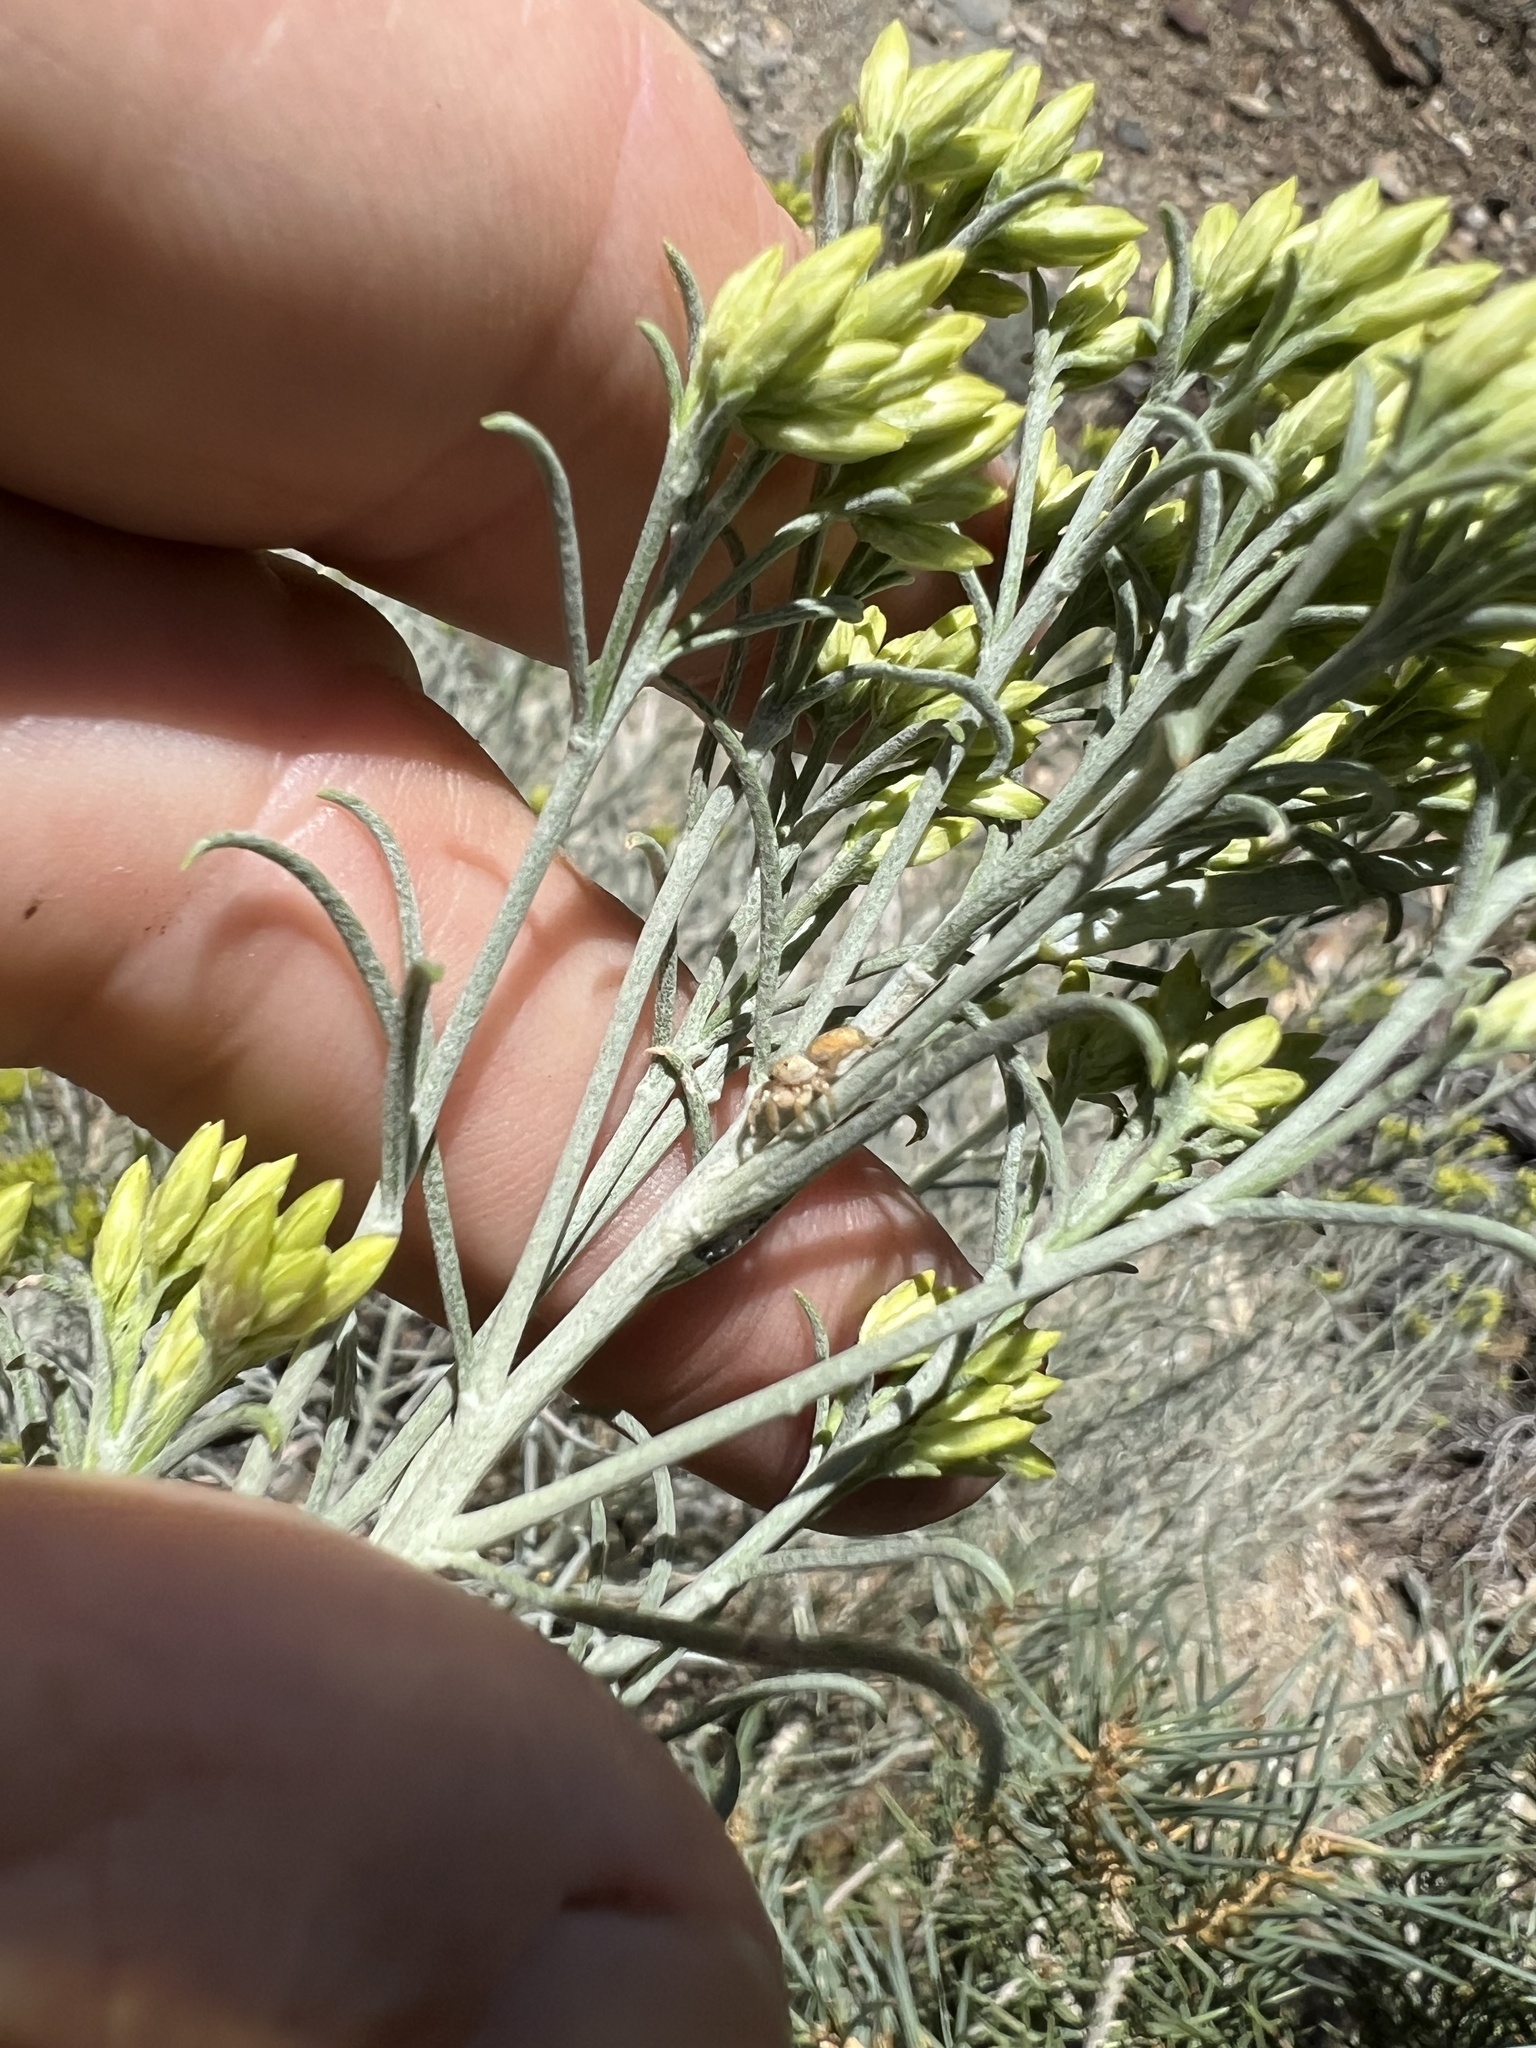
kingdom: Plantae
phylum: Tracheophyta
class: Magnoliopsida
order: Asterales
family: Asteraceae
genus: Ericameria
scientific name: Ericameria nauseosa
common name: Rubber rabbitbrush
